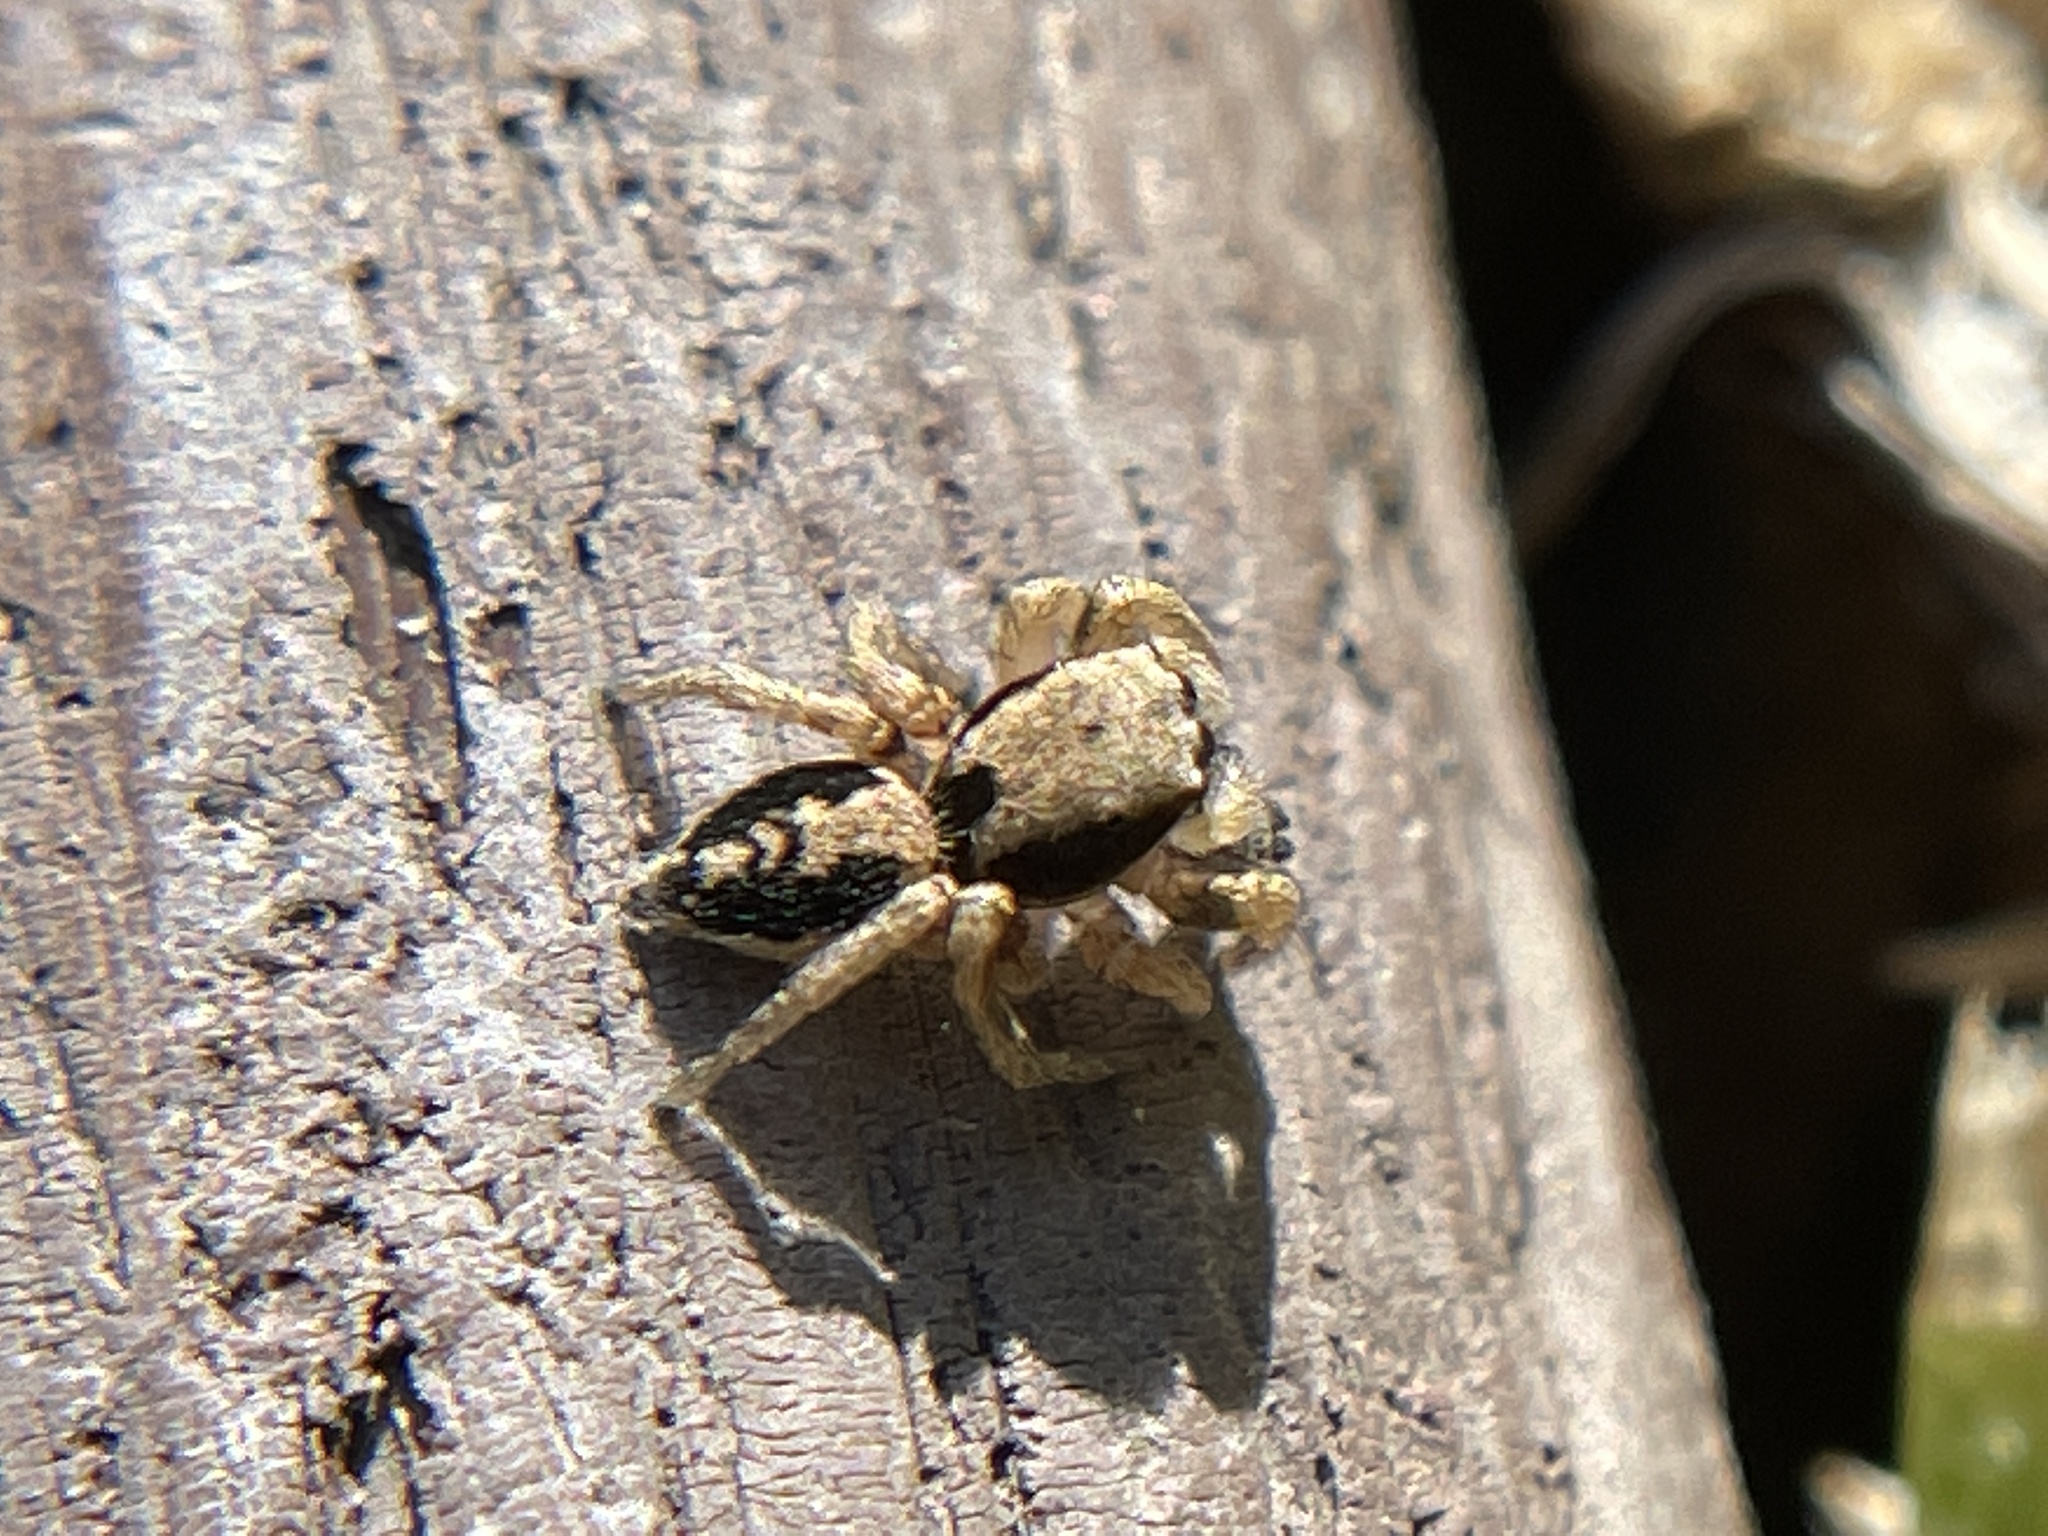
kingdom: Animalia
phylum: Arthropoda
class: Arachnida
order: Araneae
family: Salticidae
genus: Habronattus
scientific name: Habronattus pyrrithrix
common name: Jumping spider
